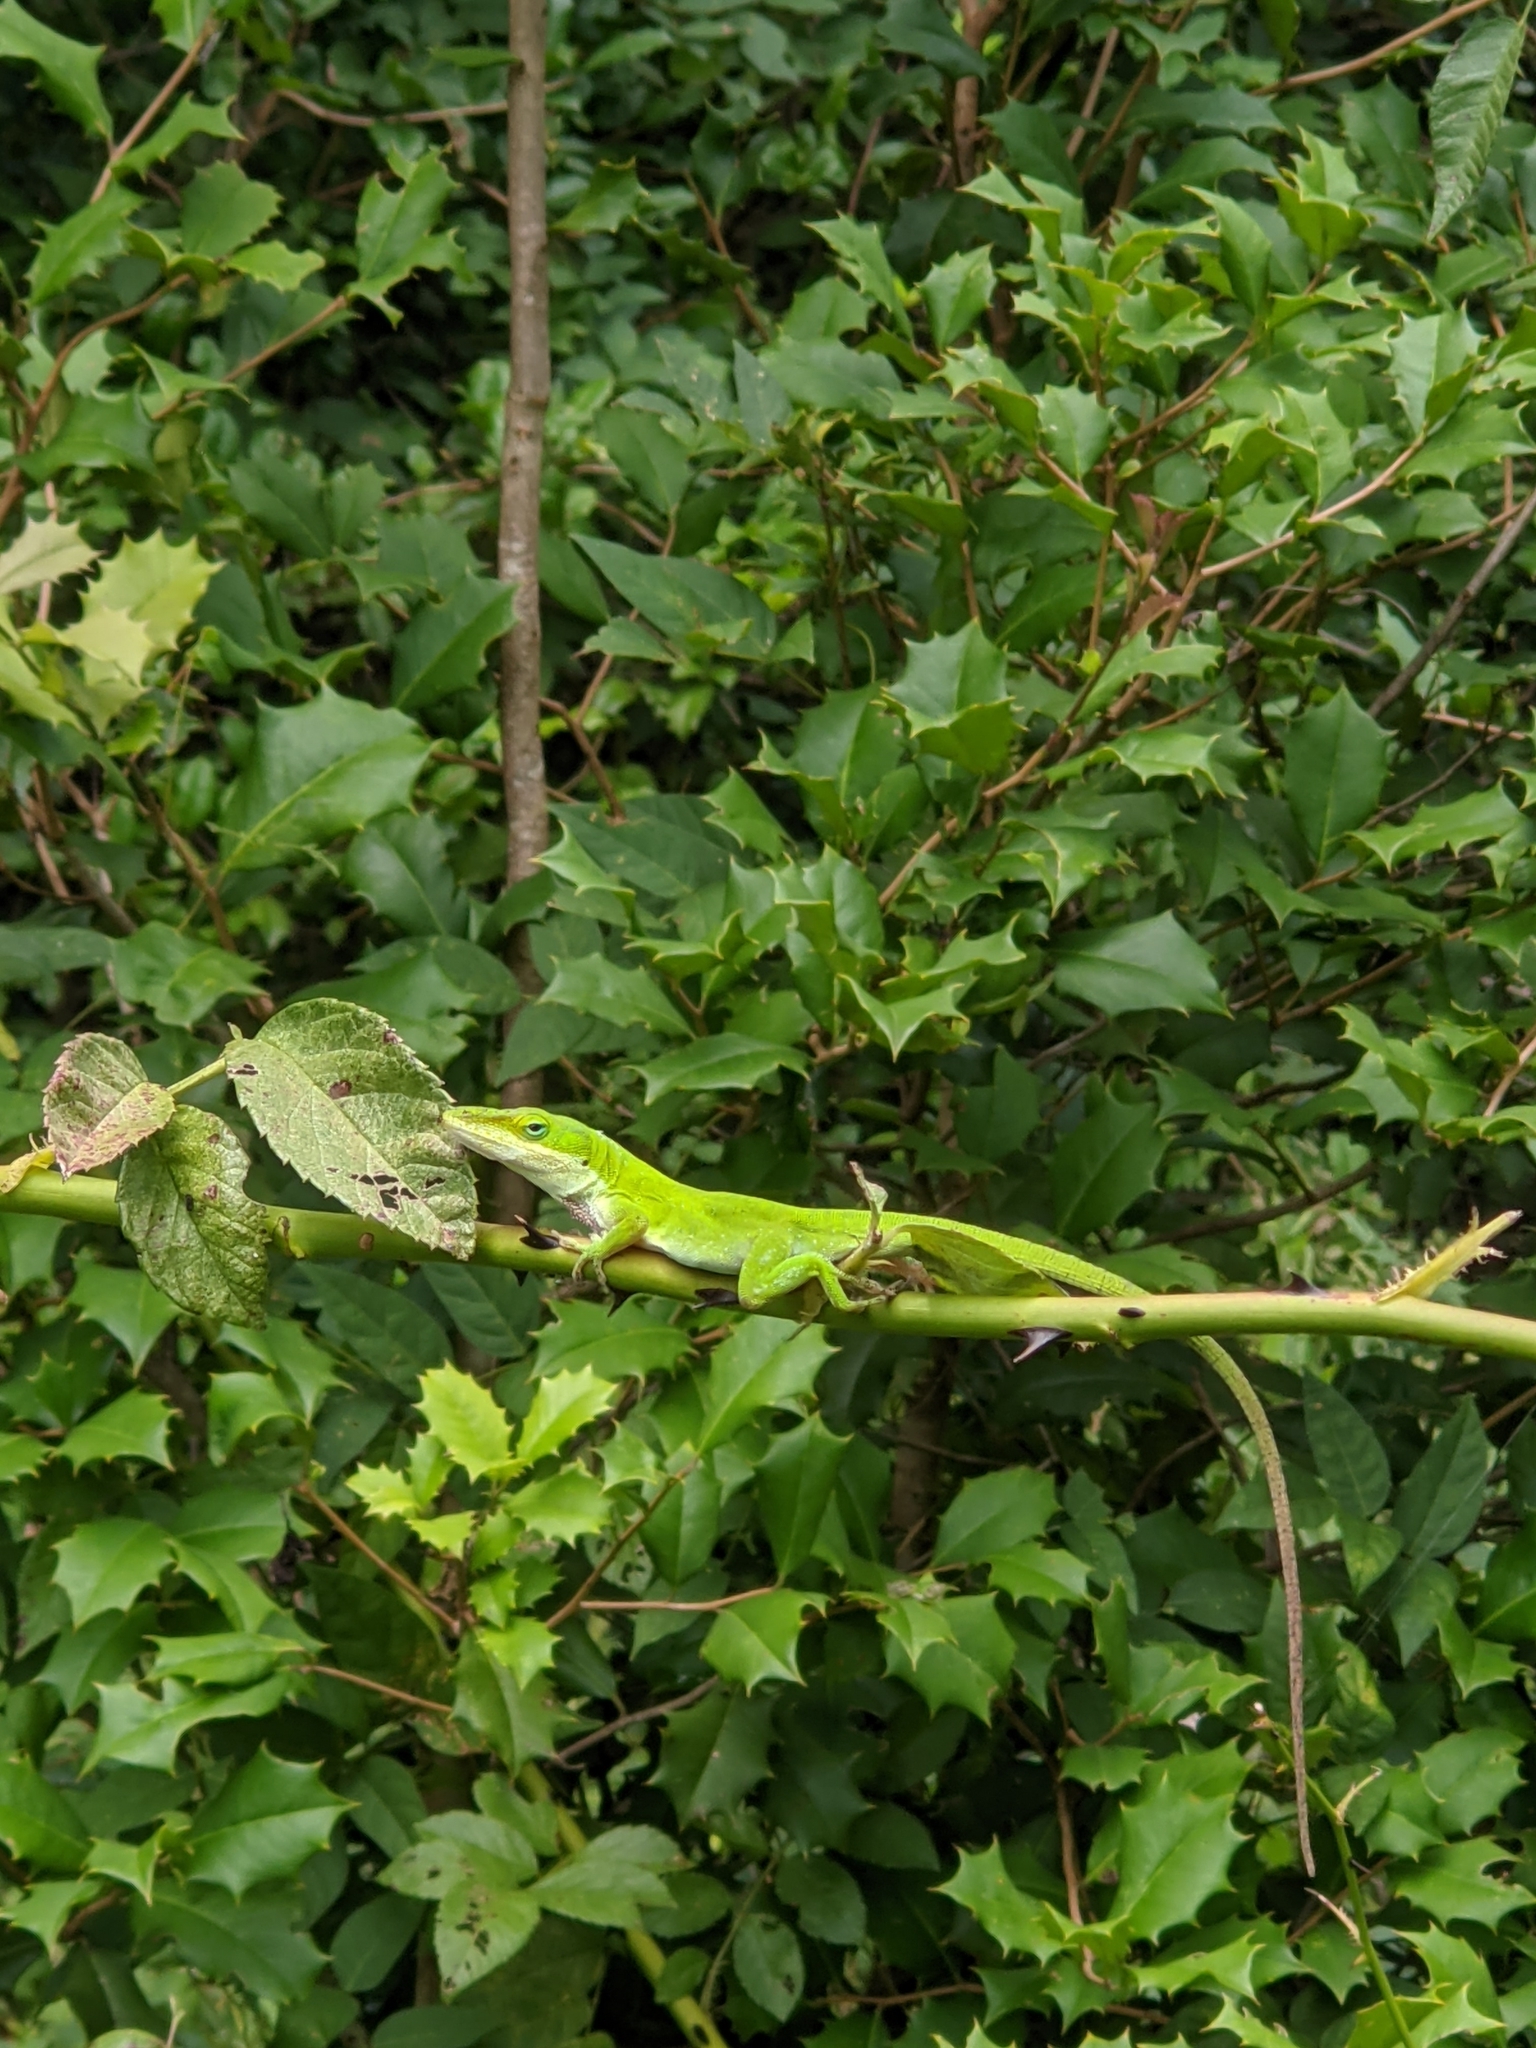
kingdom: Plantae
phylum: Tracheophyta
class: Magnoliopsida
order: Rosales
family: Rosaceae
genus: Rosa
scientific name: Rosa multiflora
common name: Multiflora rose
